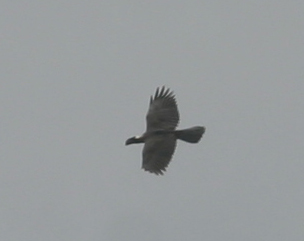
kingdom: Animalia
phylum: Chordata
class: Aves
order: Passeriformes
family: Corvidae
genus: Corvus
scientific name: Corvus crassirostris
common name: Thick-billed raven
